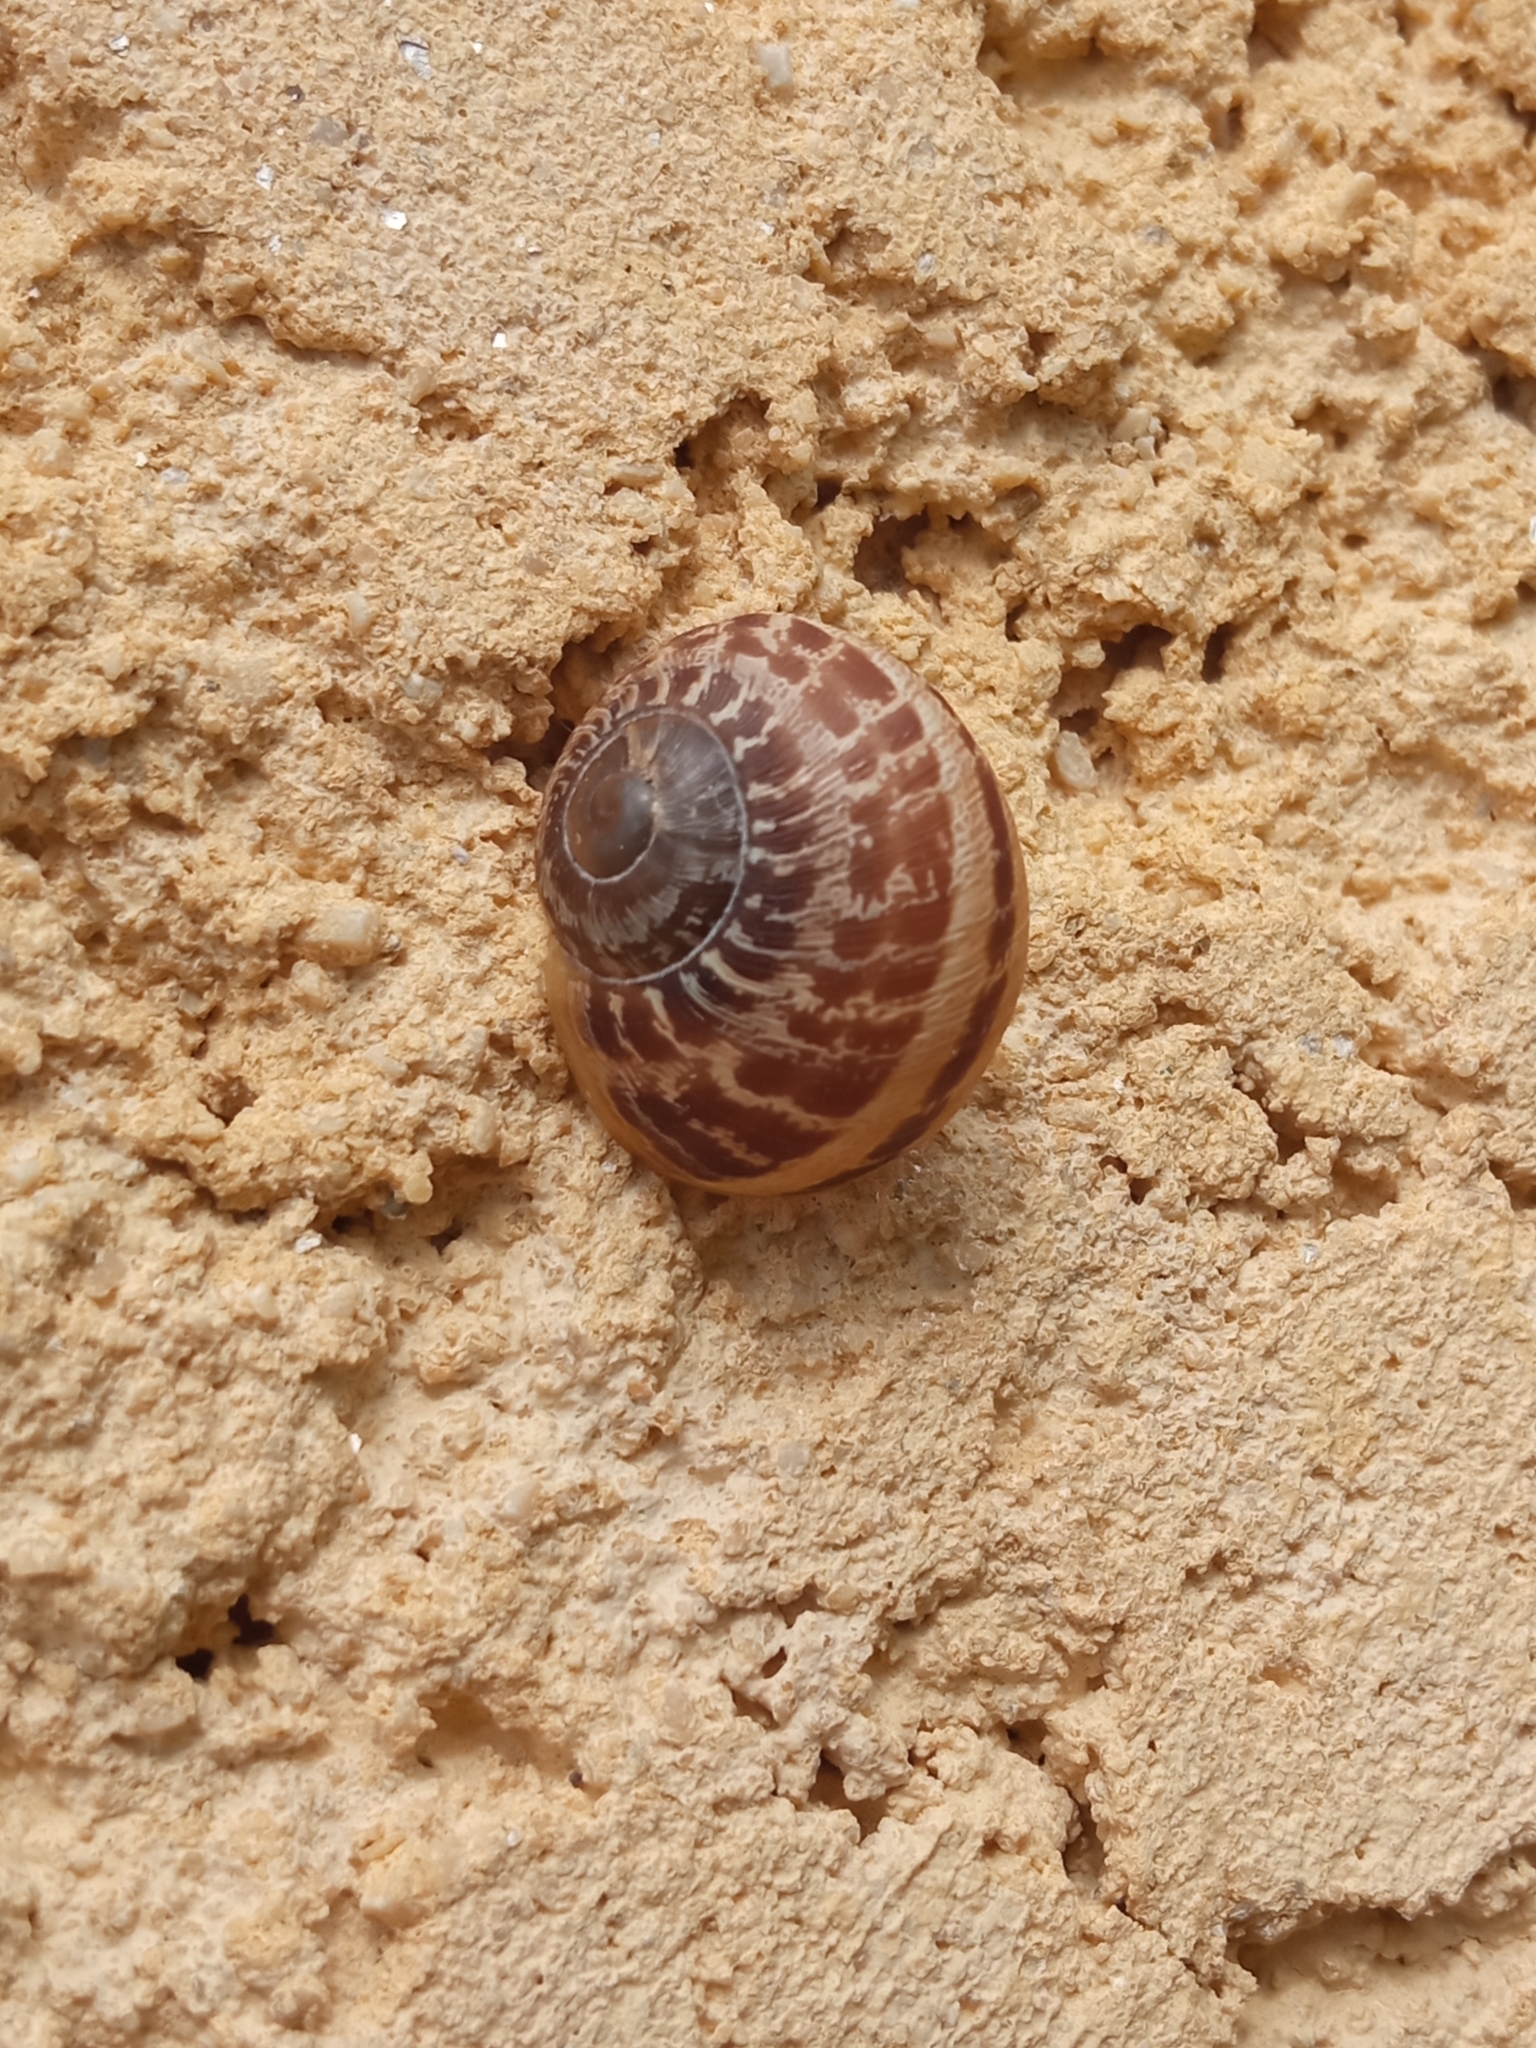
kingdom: Animalia
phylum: Mollusca
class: Gastropoda
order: Stylommatophora
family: Helicidae
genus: Cornu
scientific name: Cornu aspersum
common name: Brown garden snail
